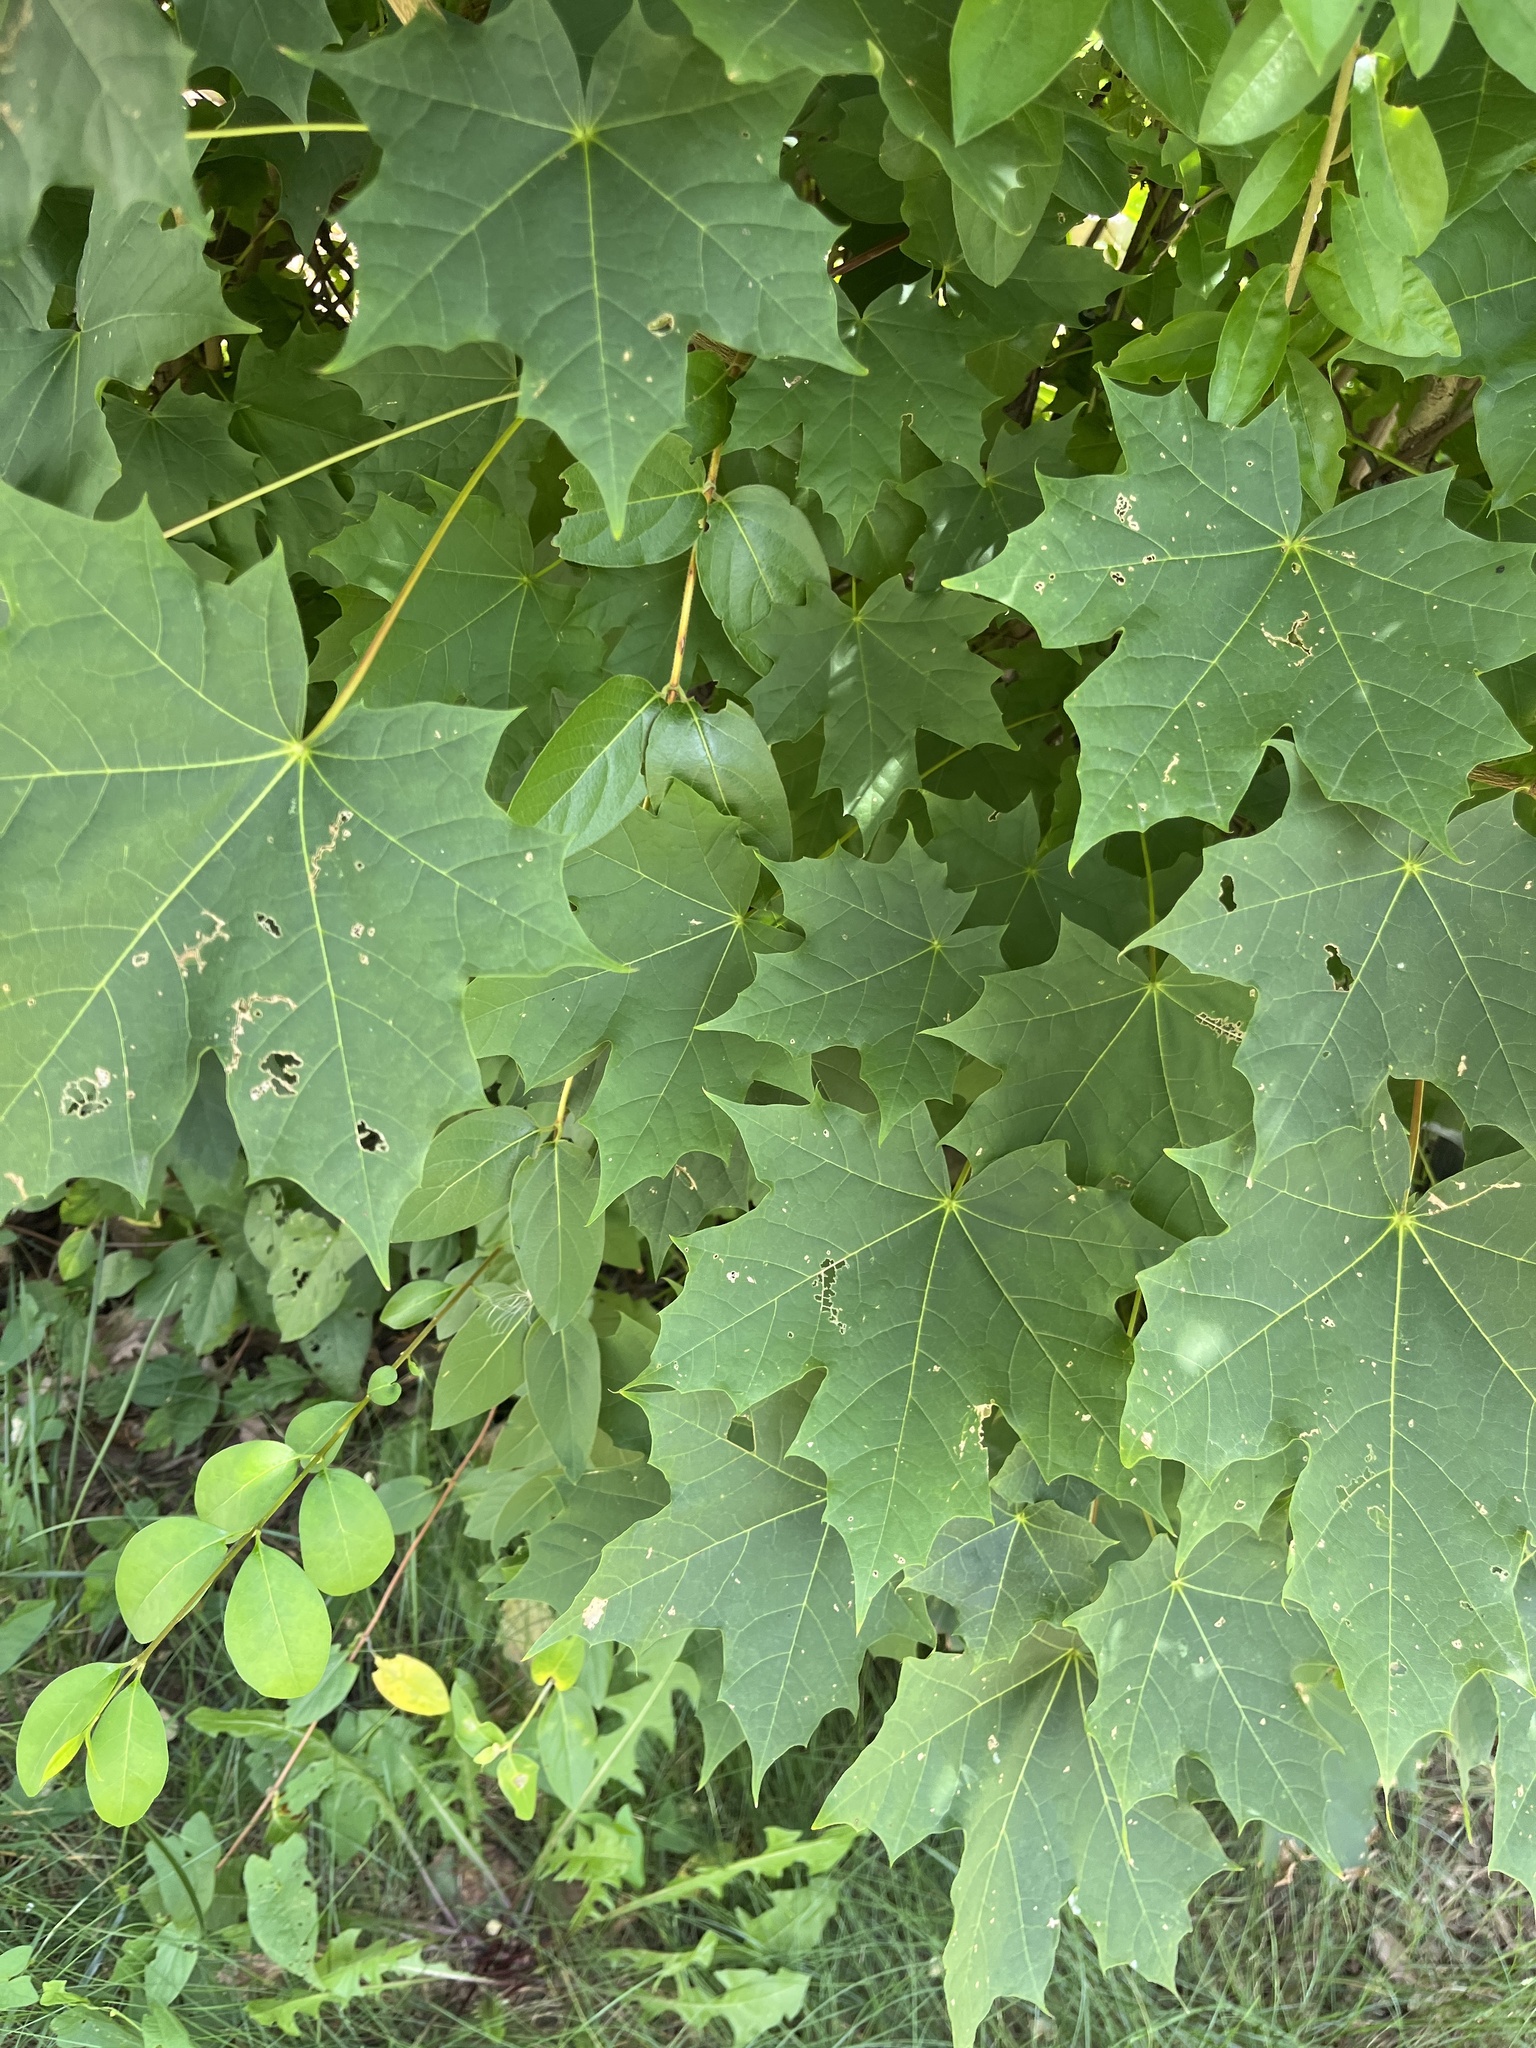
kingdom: Plantae
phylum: Tracheophyta
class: Magnoliopsida
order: Sapindales
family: Sapindaceae
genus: Acer
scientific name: Acer platanoides
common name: Norway maple
